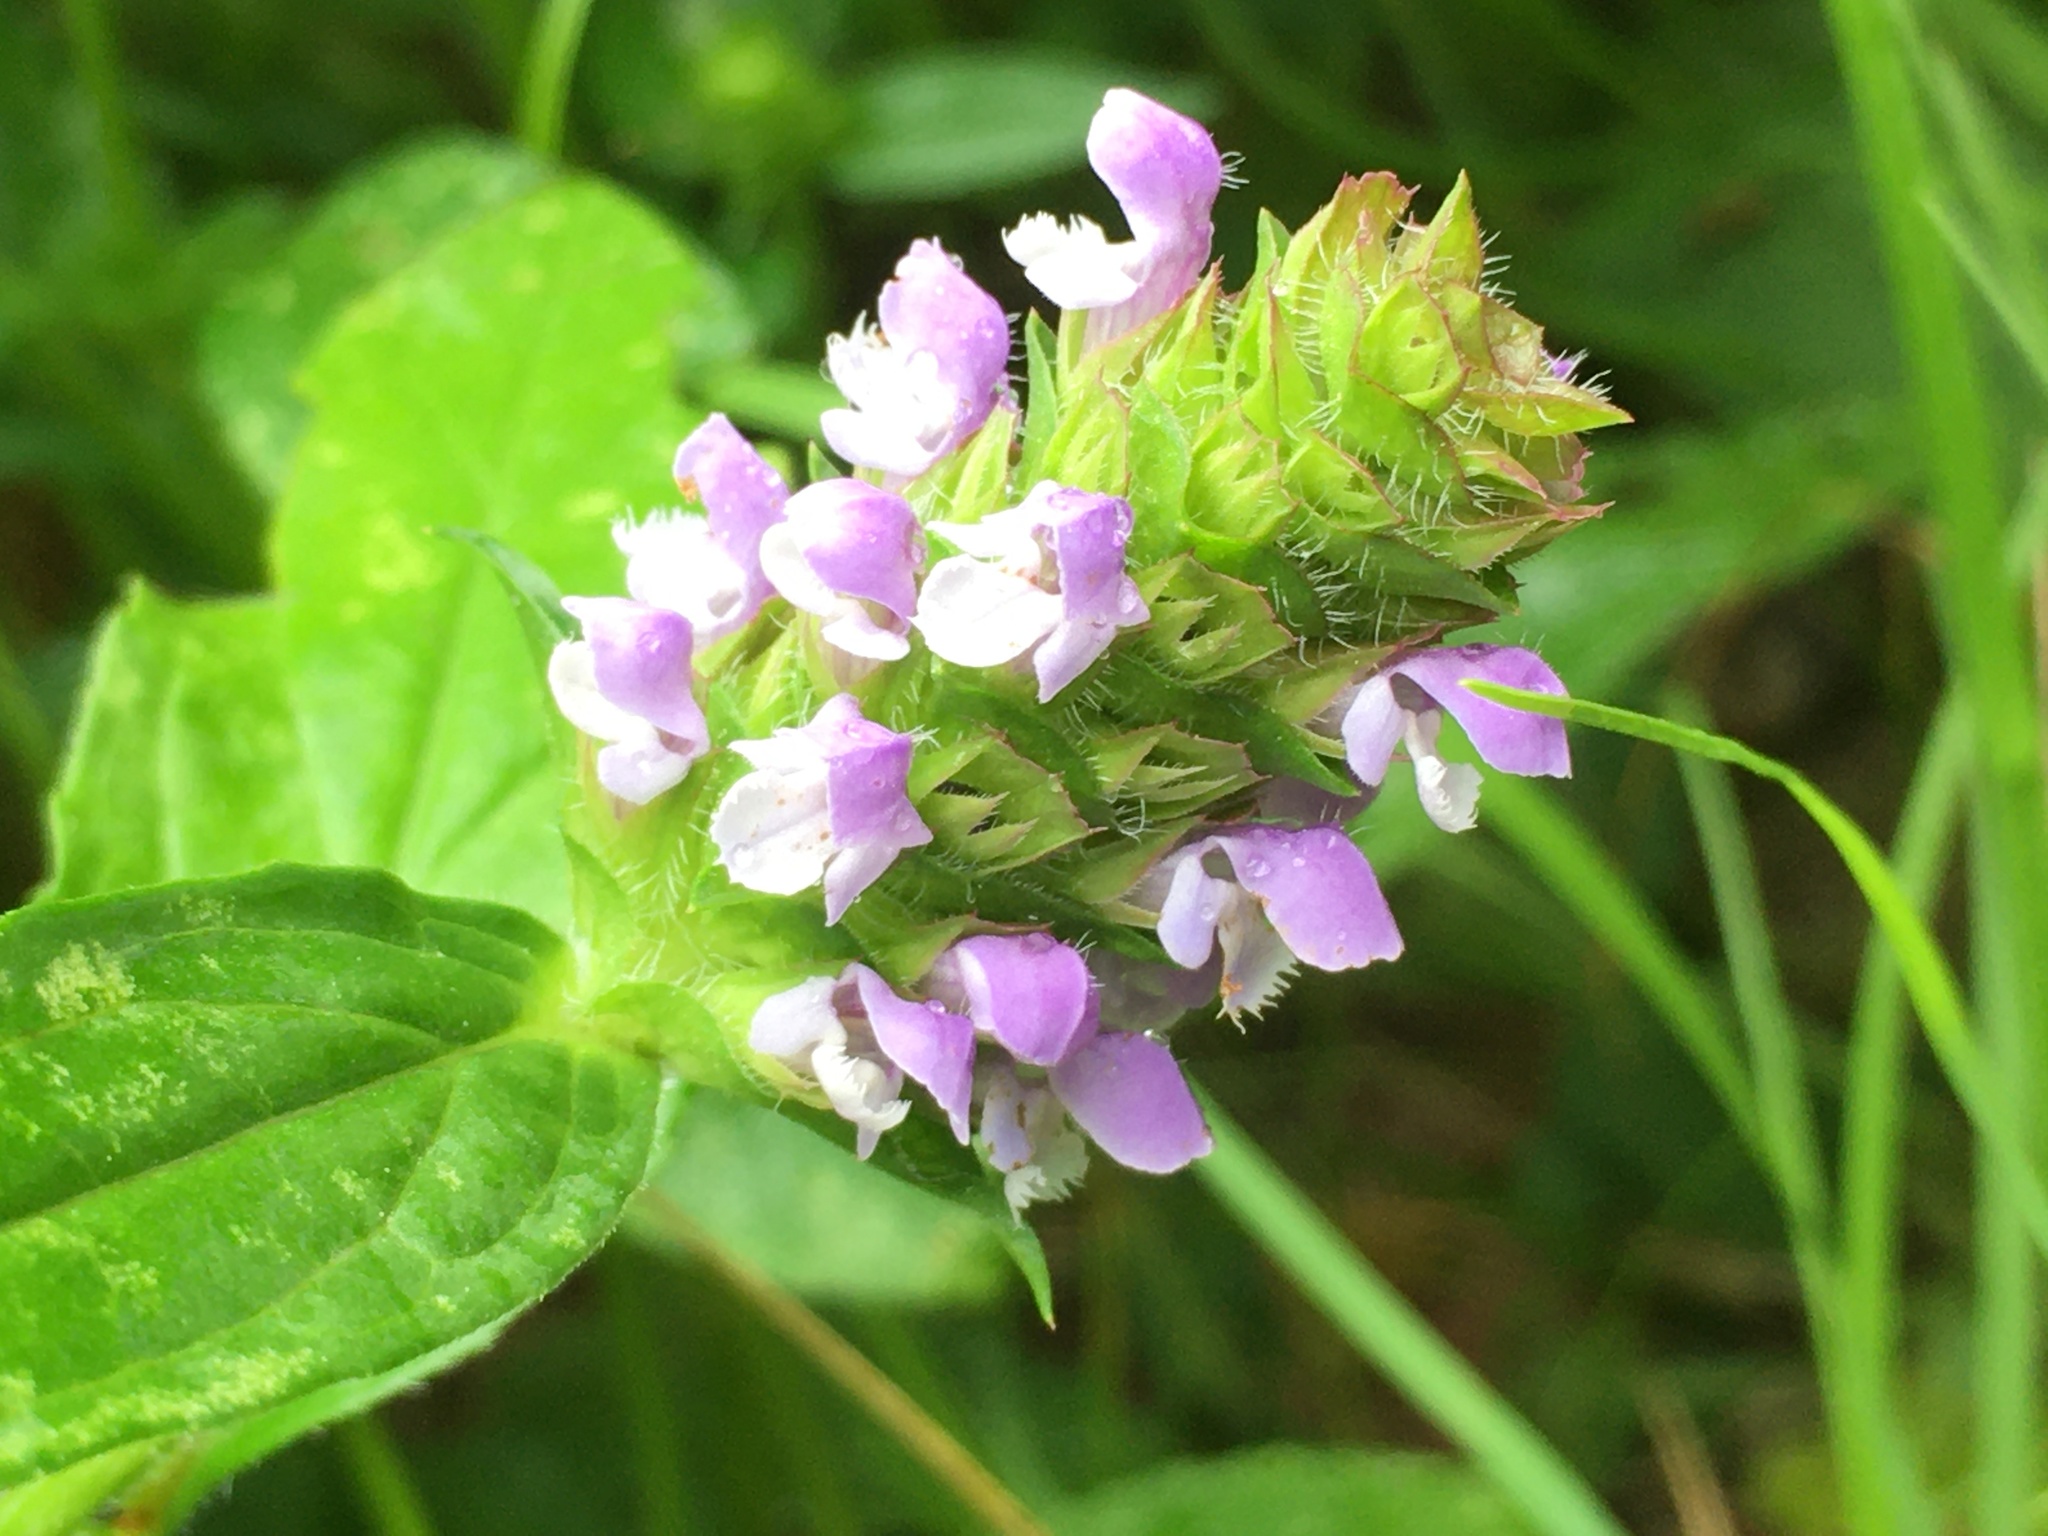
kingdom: Plantae
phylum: Tracheophyta
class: Magnoliopsida
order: Lamiales
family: Lamiaceae
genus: Prunella
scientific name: Prunella vulgaris
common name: Heal-all
